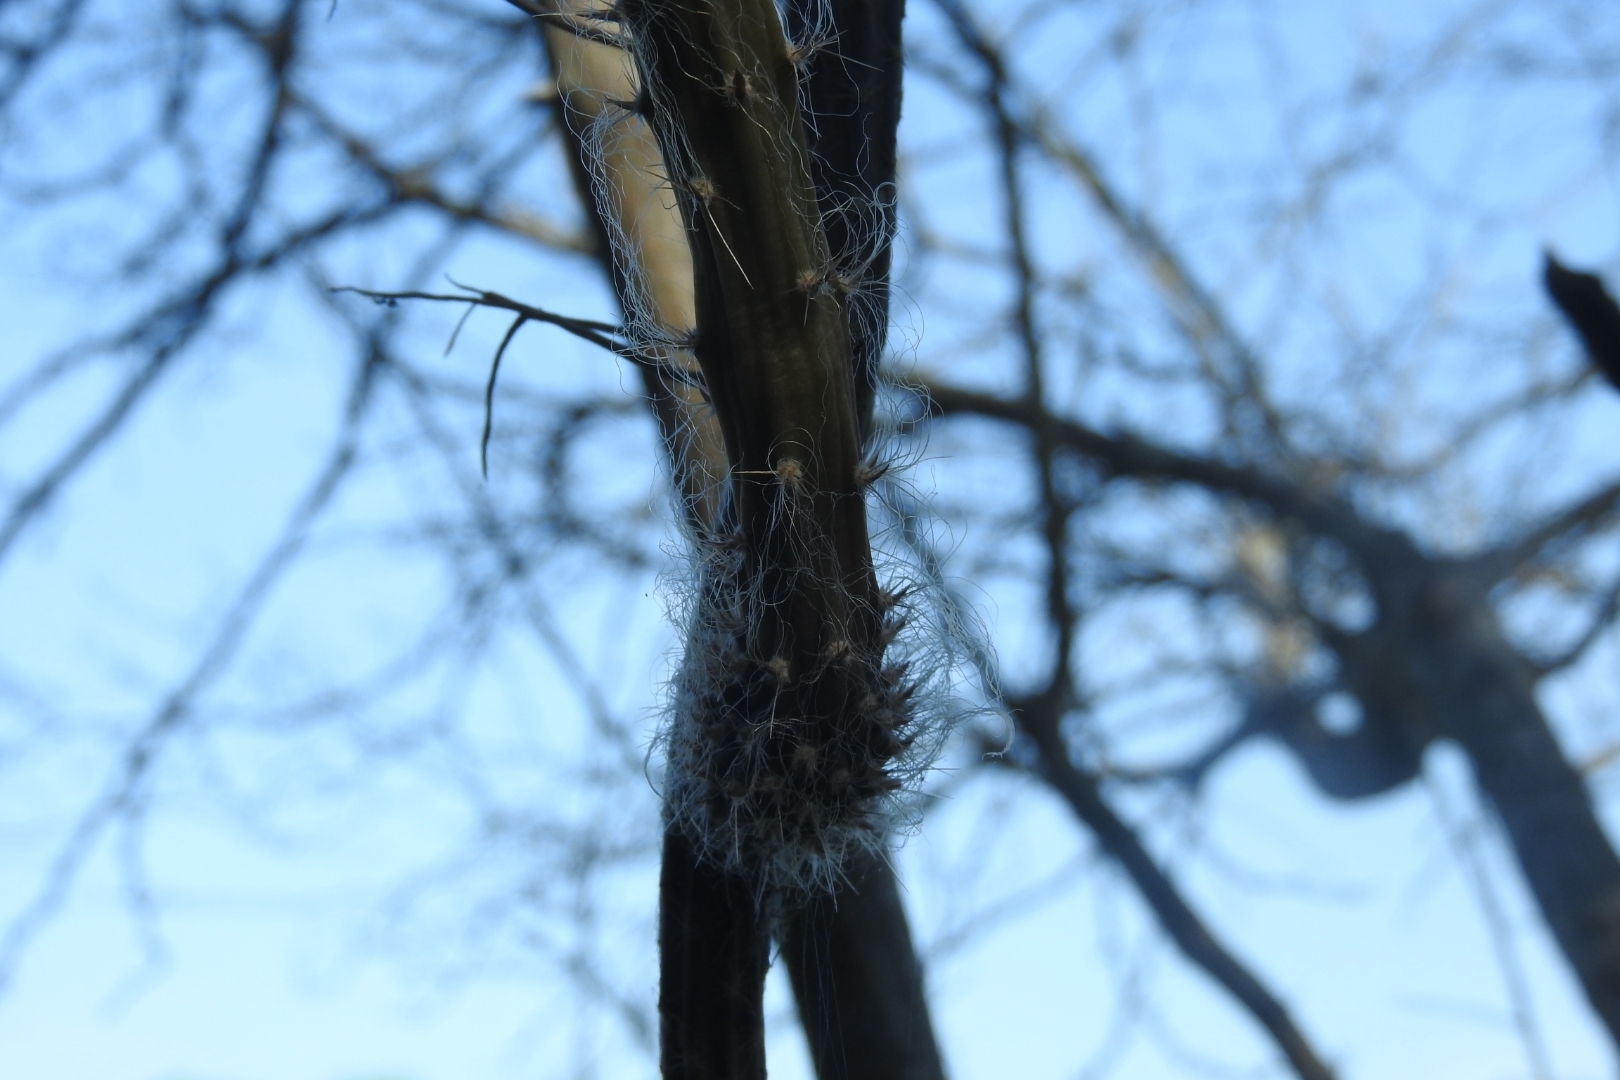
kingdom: Plantae
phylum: Tracheophyta
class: Magnoliopsida
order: Caryophyllales
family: Cactaceae
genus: Selenicereus
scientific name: Selenicereus grandiflorus
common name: Queen of the night
